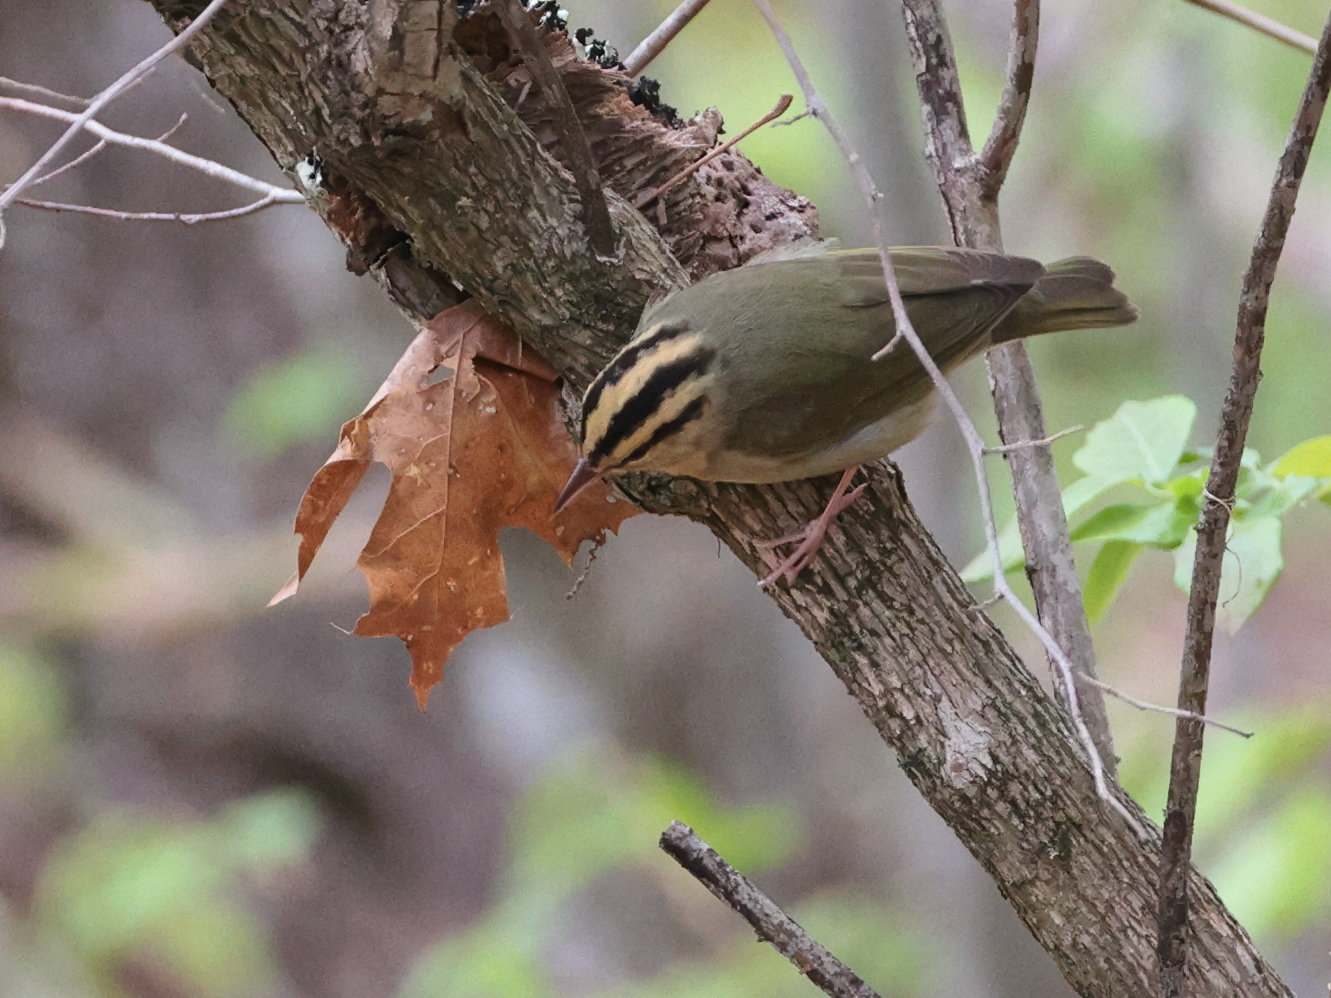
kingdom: Animalia
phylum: Chordata
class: Aves
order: Passeriformes
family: Parulidae
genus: Helmitheros
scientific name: Helmitheros vermivorum
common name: Worm-eating warbler
